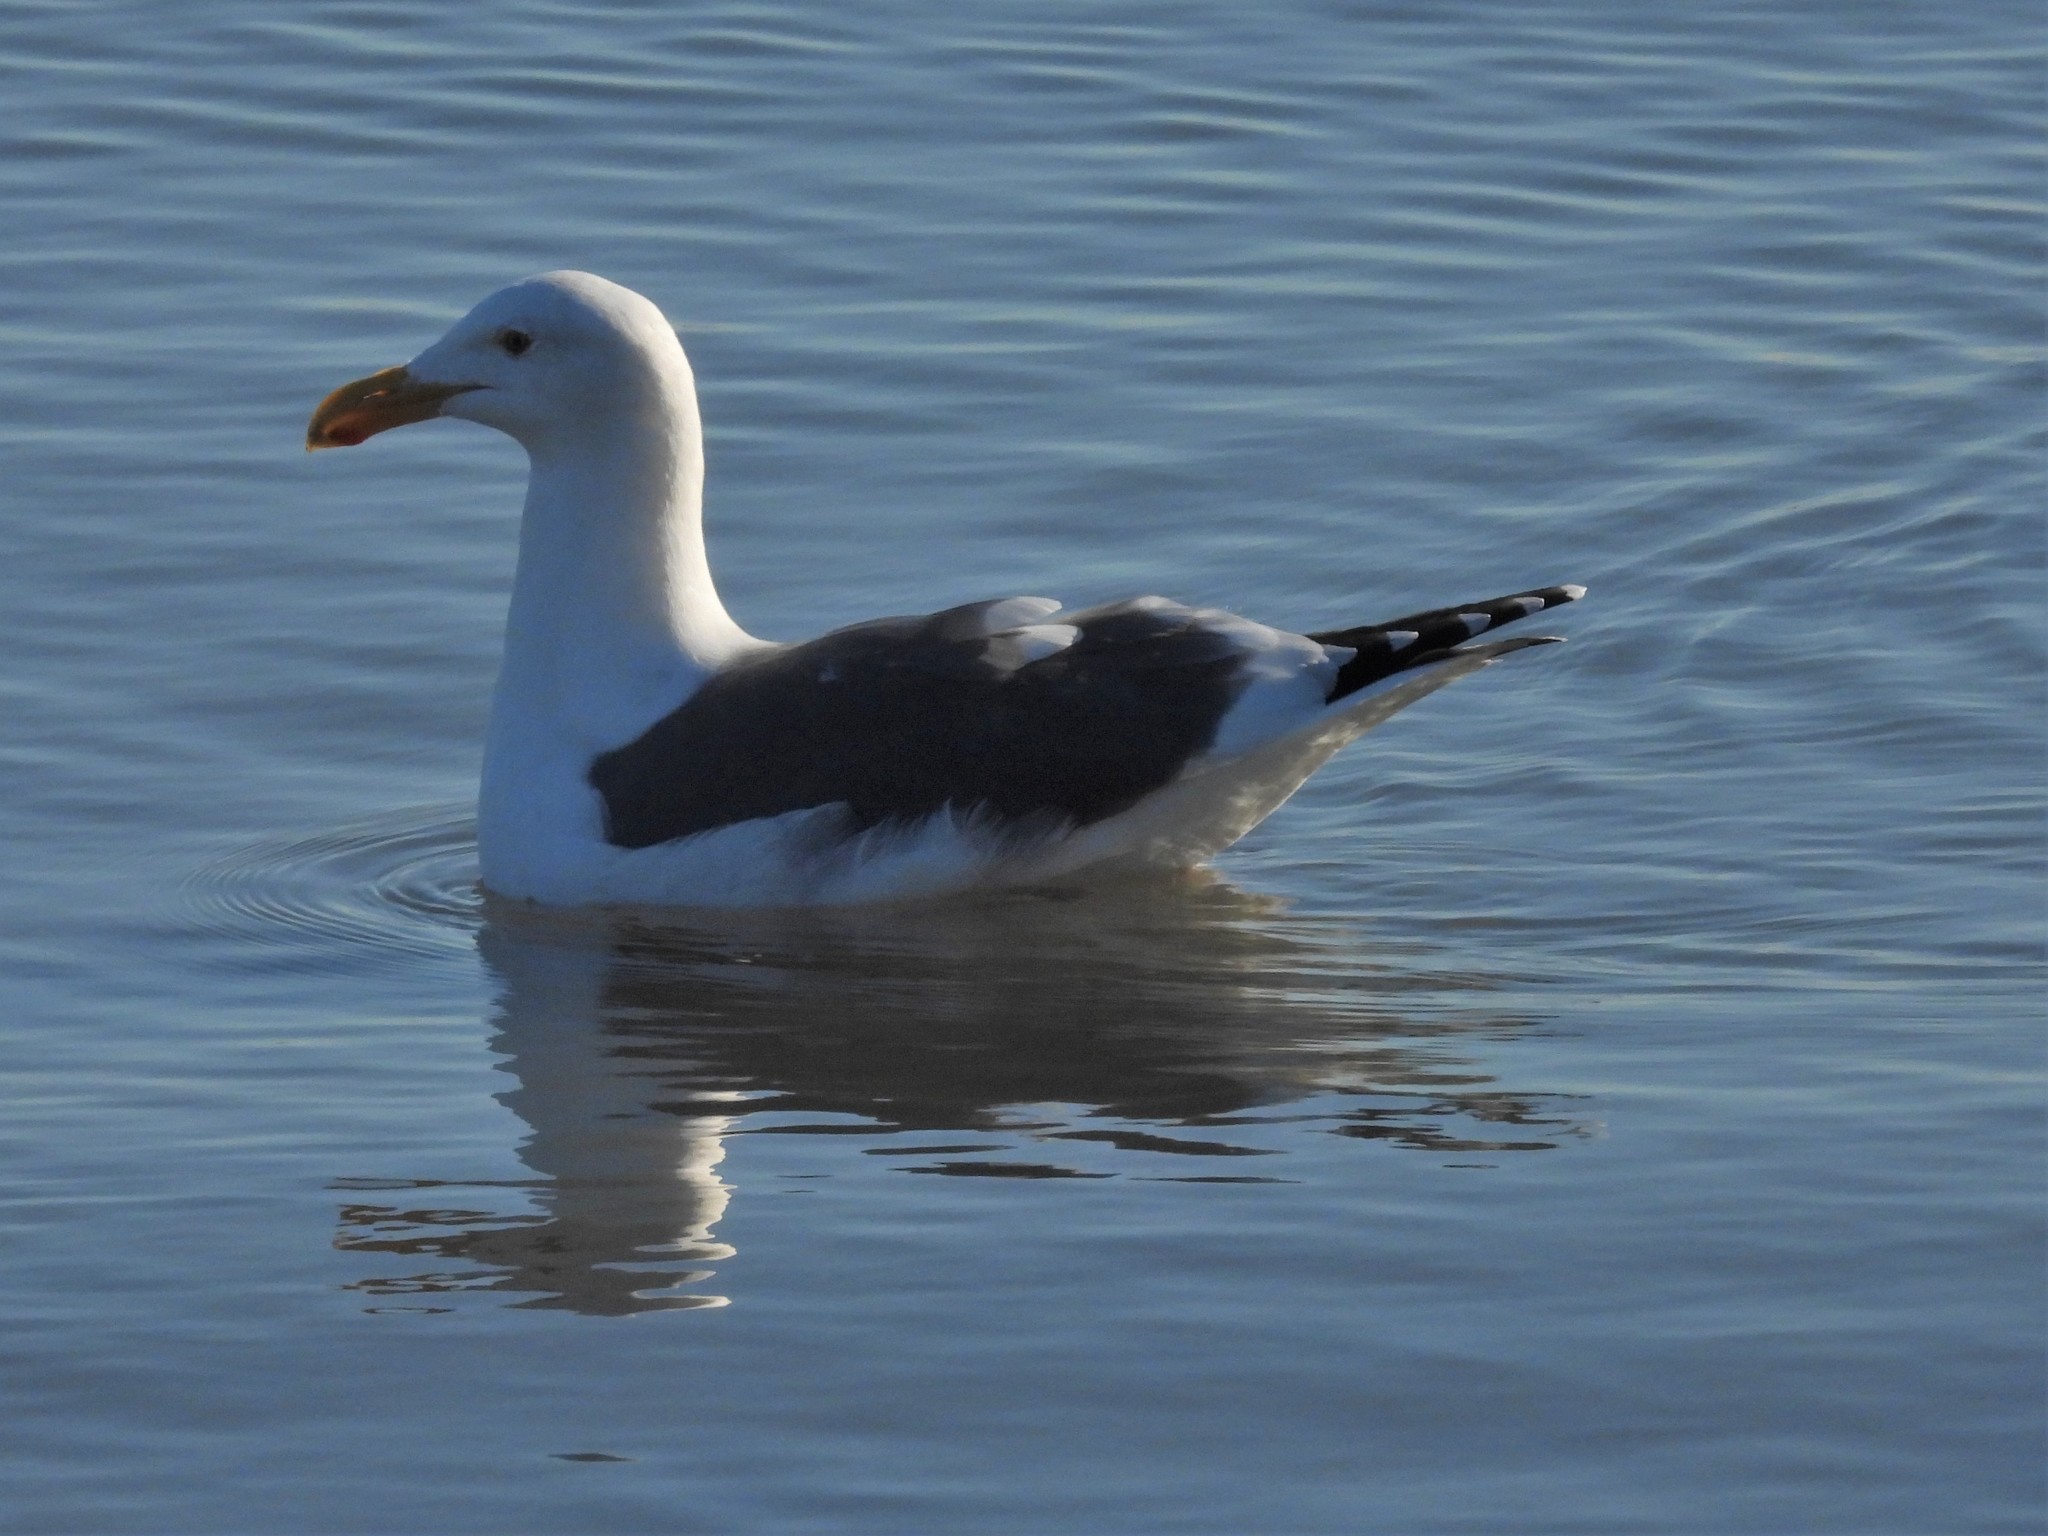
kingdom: Animalia
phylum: Chordata
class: Aves
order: Charadriiformes
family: Laridae
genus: Larus
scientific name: Larus occidentalis
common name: Western gull
